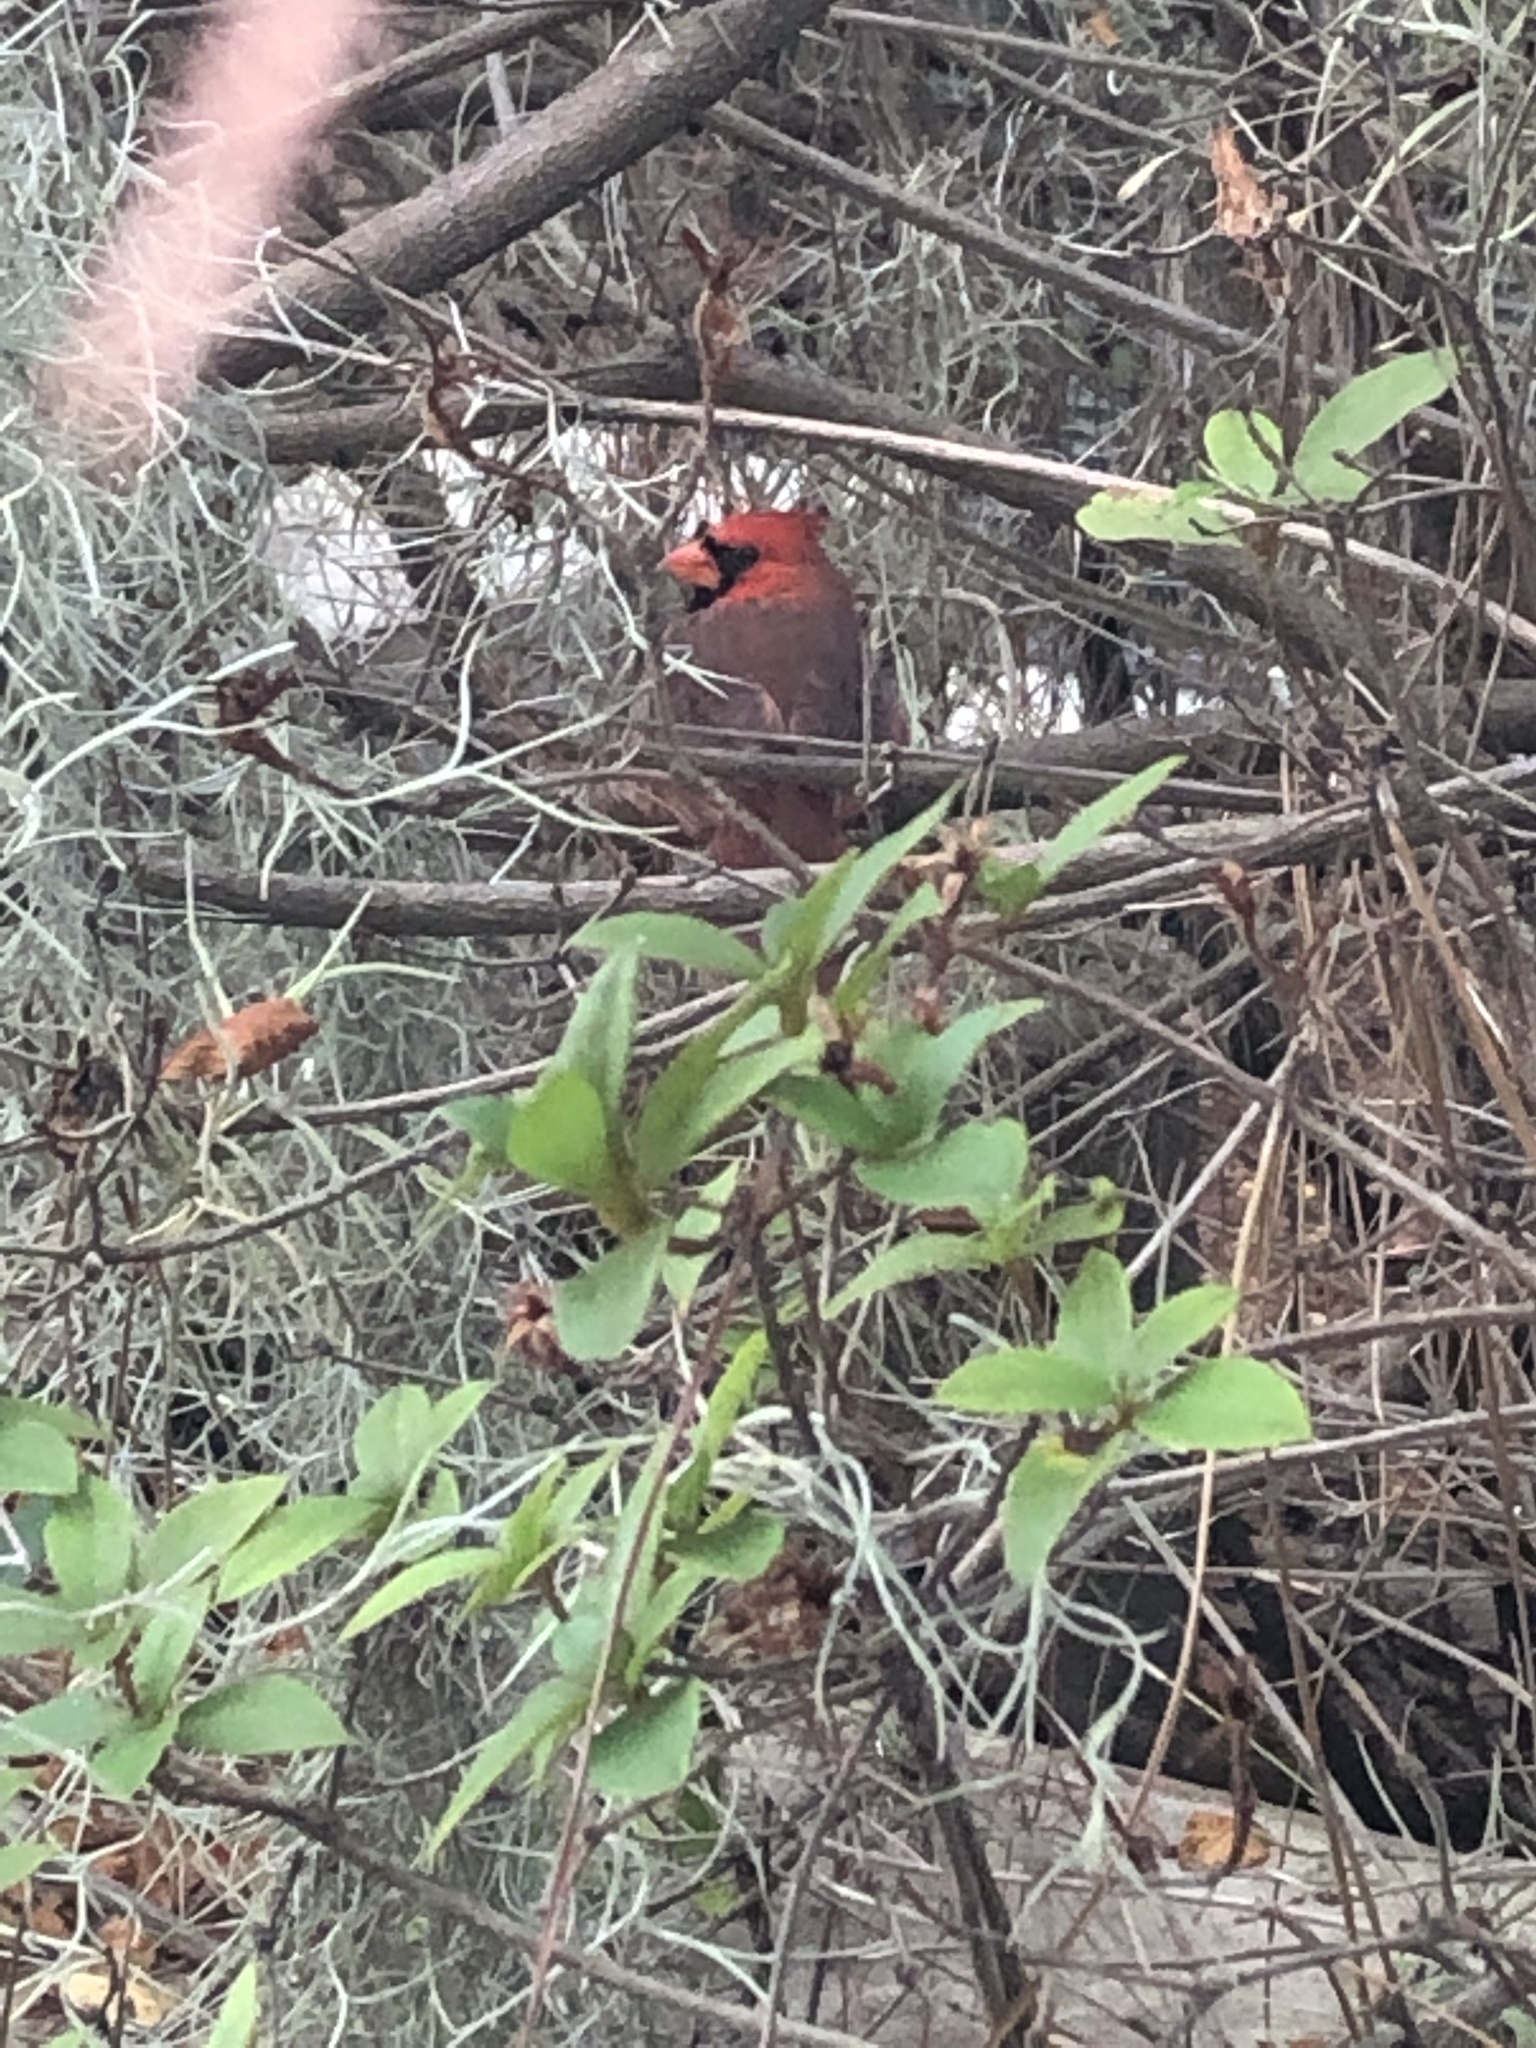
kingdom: Animalia
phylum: Chordata
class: Aves
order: Passeriformes
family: Cardinalidae
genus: Cardinalis
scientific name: Cardinalis cardinalis
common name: Northern cardinal
